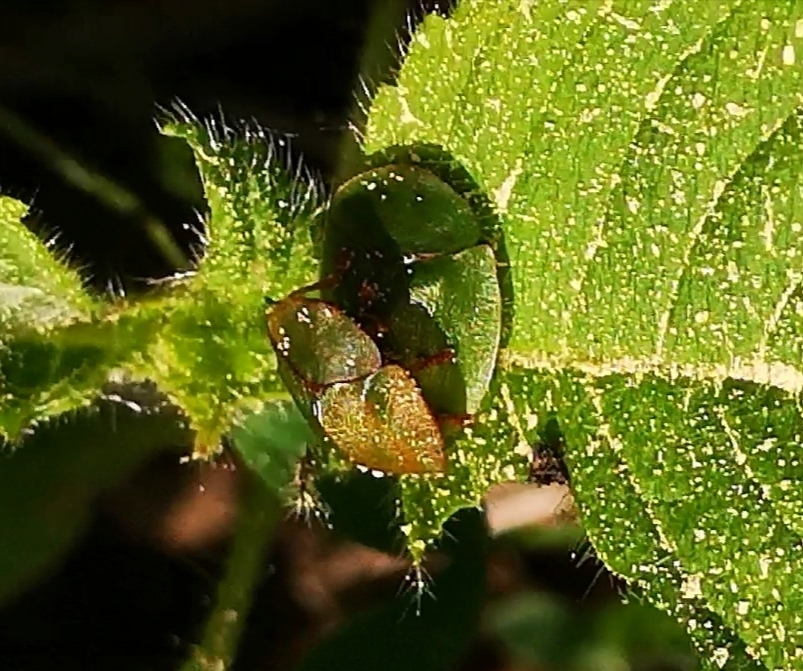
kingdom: Animalia
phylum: Arthropoda
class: Insecta
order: Coleoptera
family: Chrysomelidae
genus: Cassida
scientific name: Cassida viridis
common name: Green tortoise beetle
